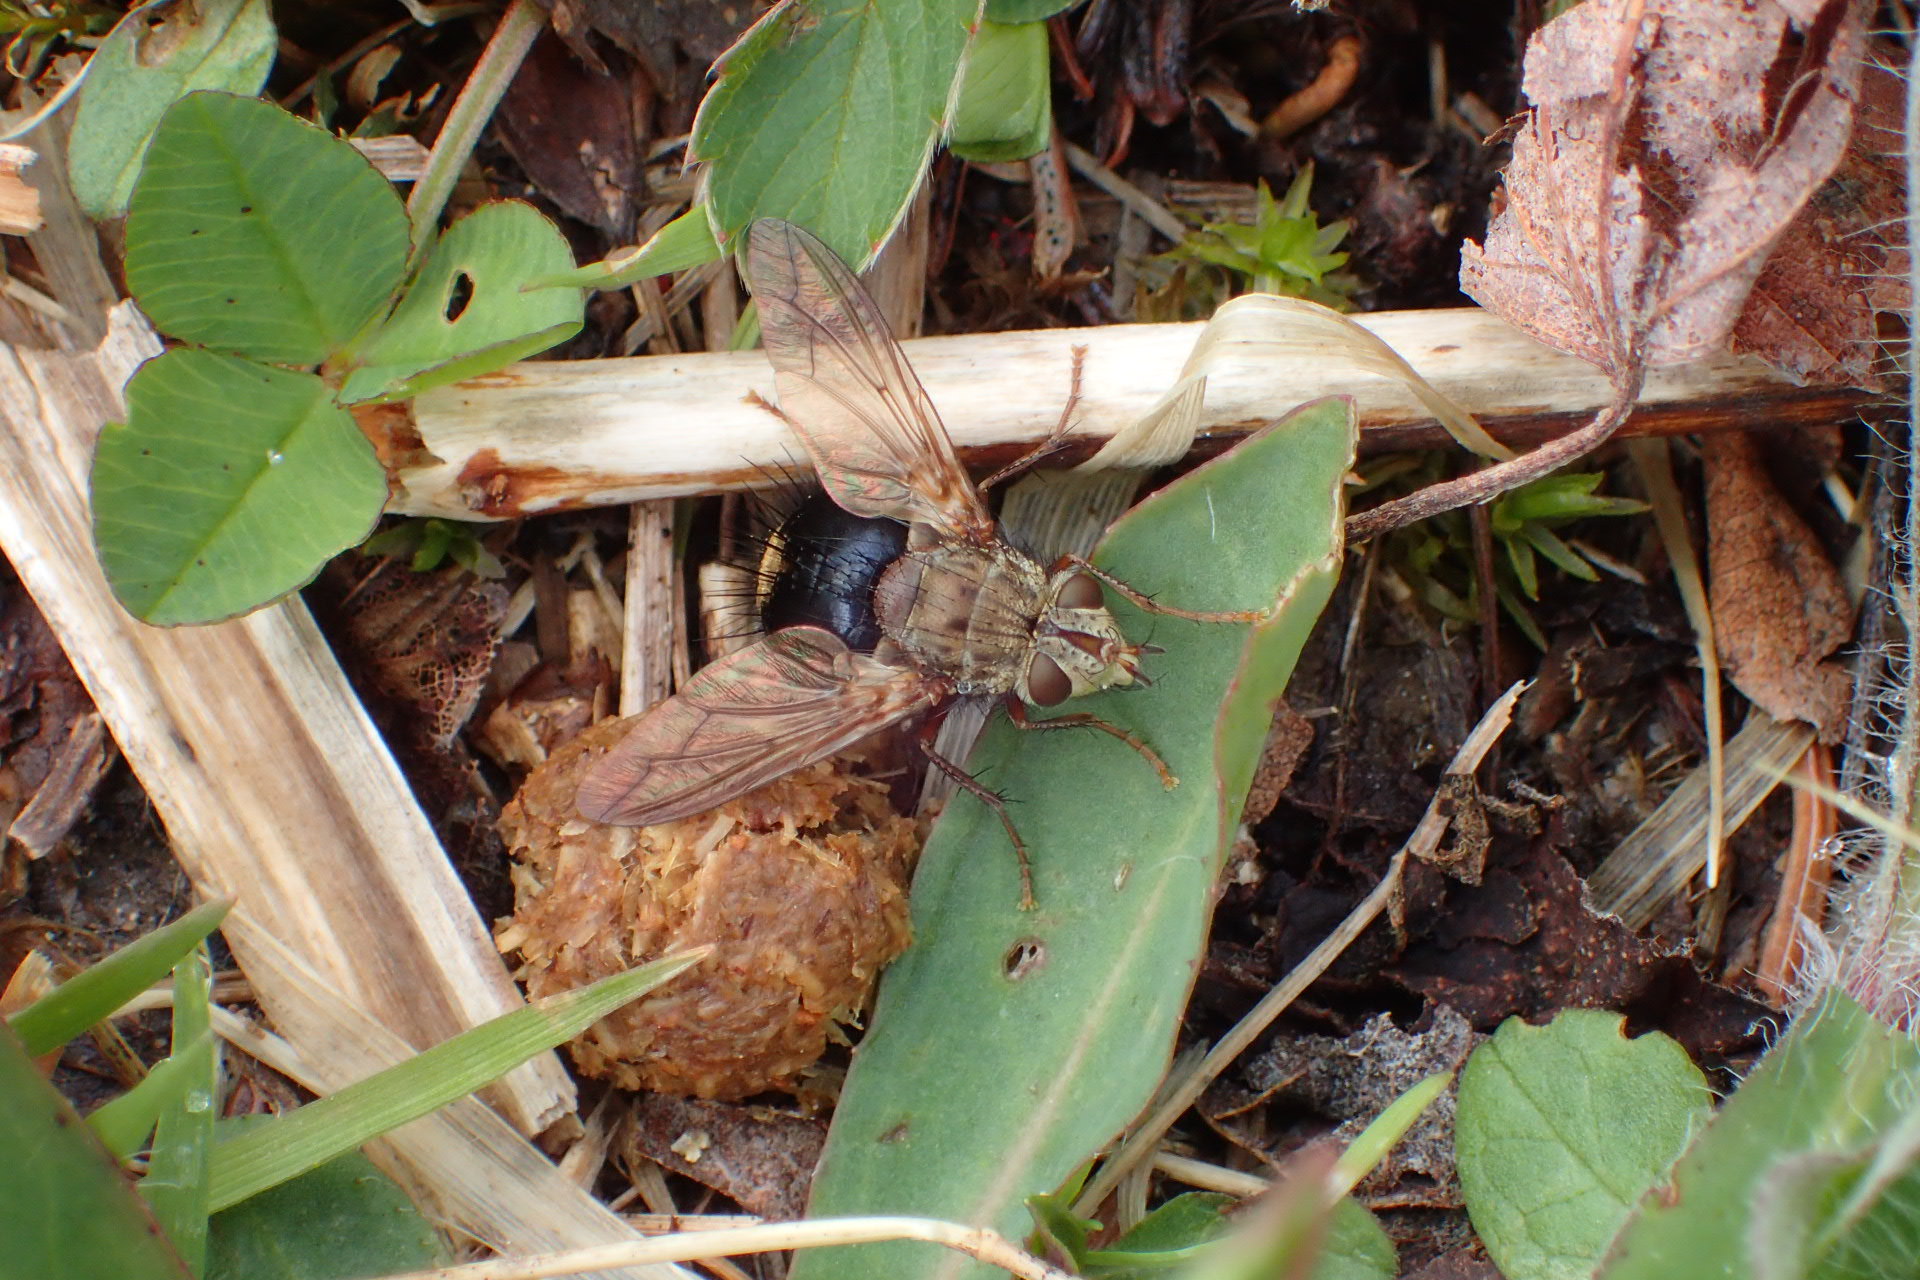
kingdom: Animalia
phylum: Arthropoda
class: Insecta
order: Diptera
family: Tachinidae
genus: Epalpus
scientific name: Epalpus signifer
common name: Early tachinid fly
